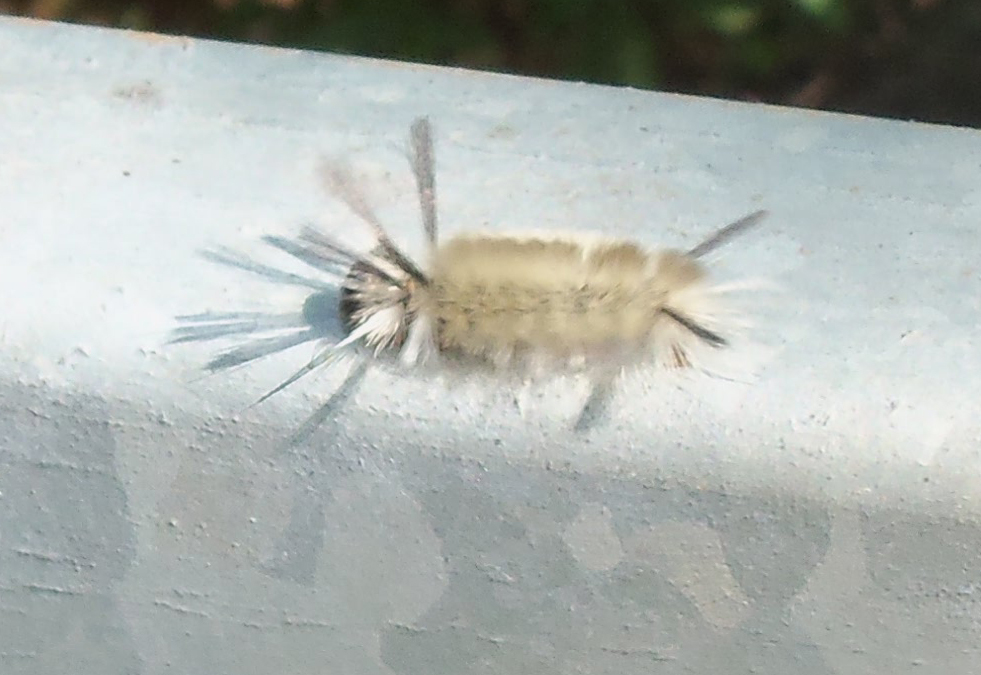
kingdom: Animalia
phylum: Arthropoda
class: Insecta
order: Lepidoptera
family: Erebidae
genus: Halysidota
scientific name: Halysidota tessellaris
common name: Banded tussock moth
